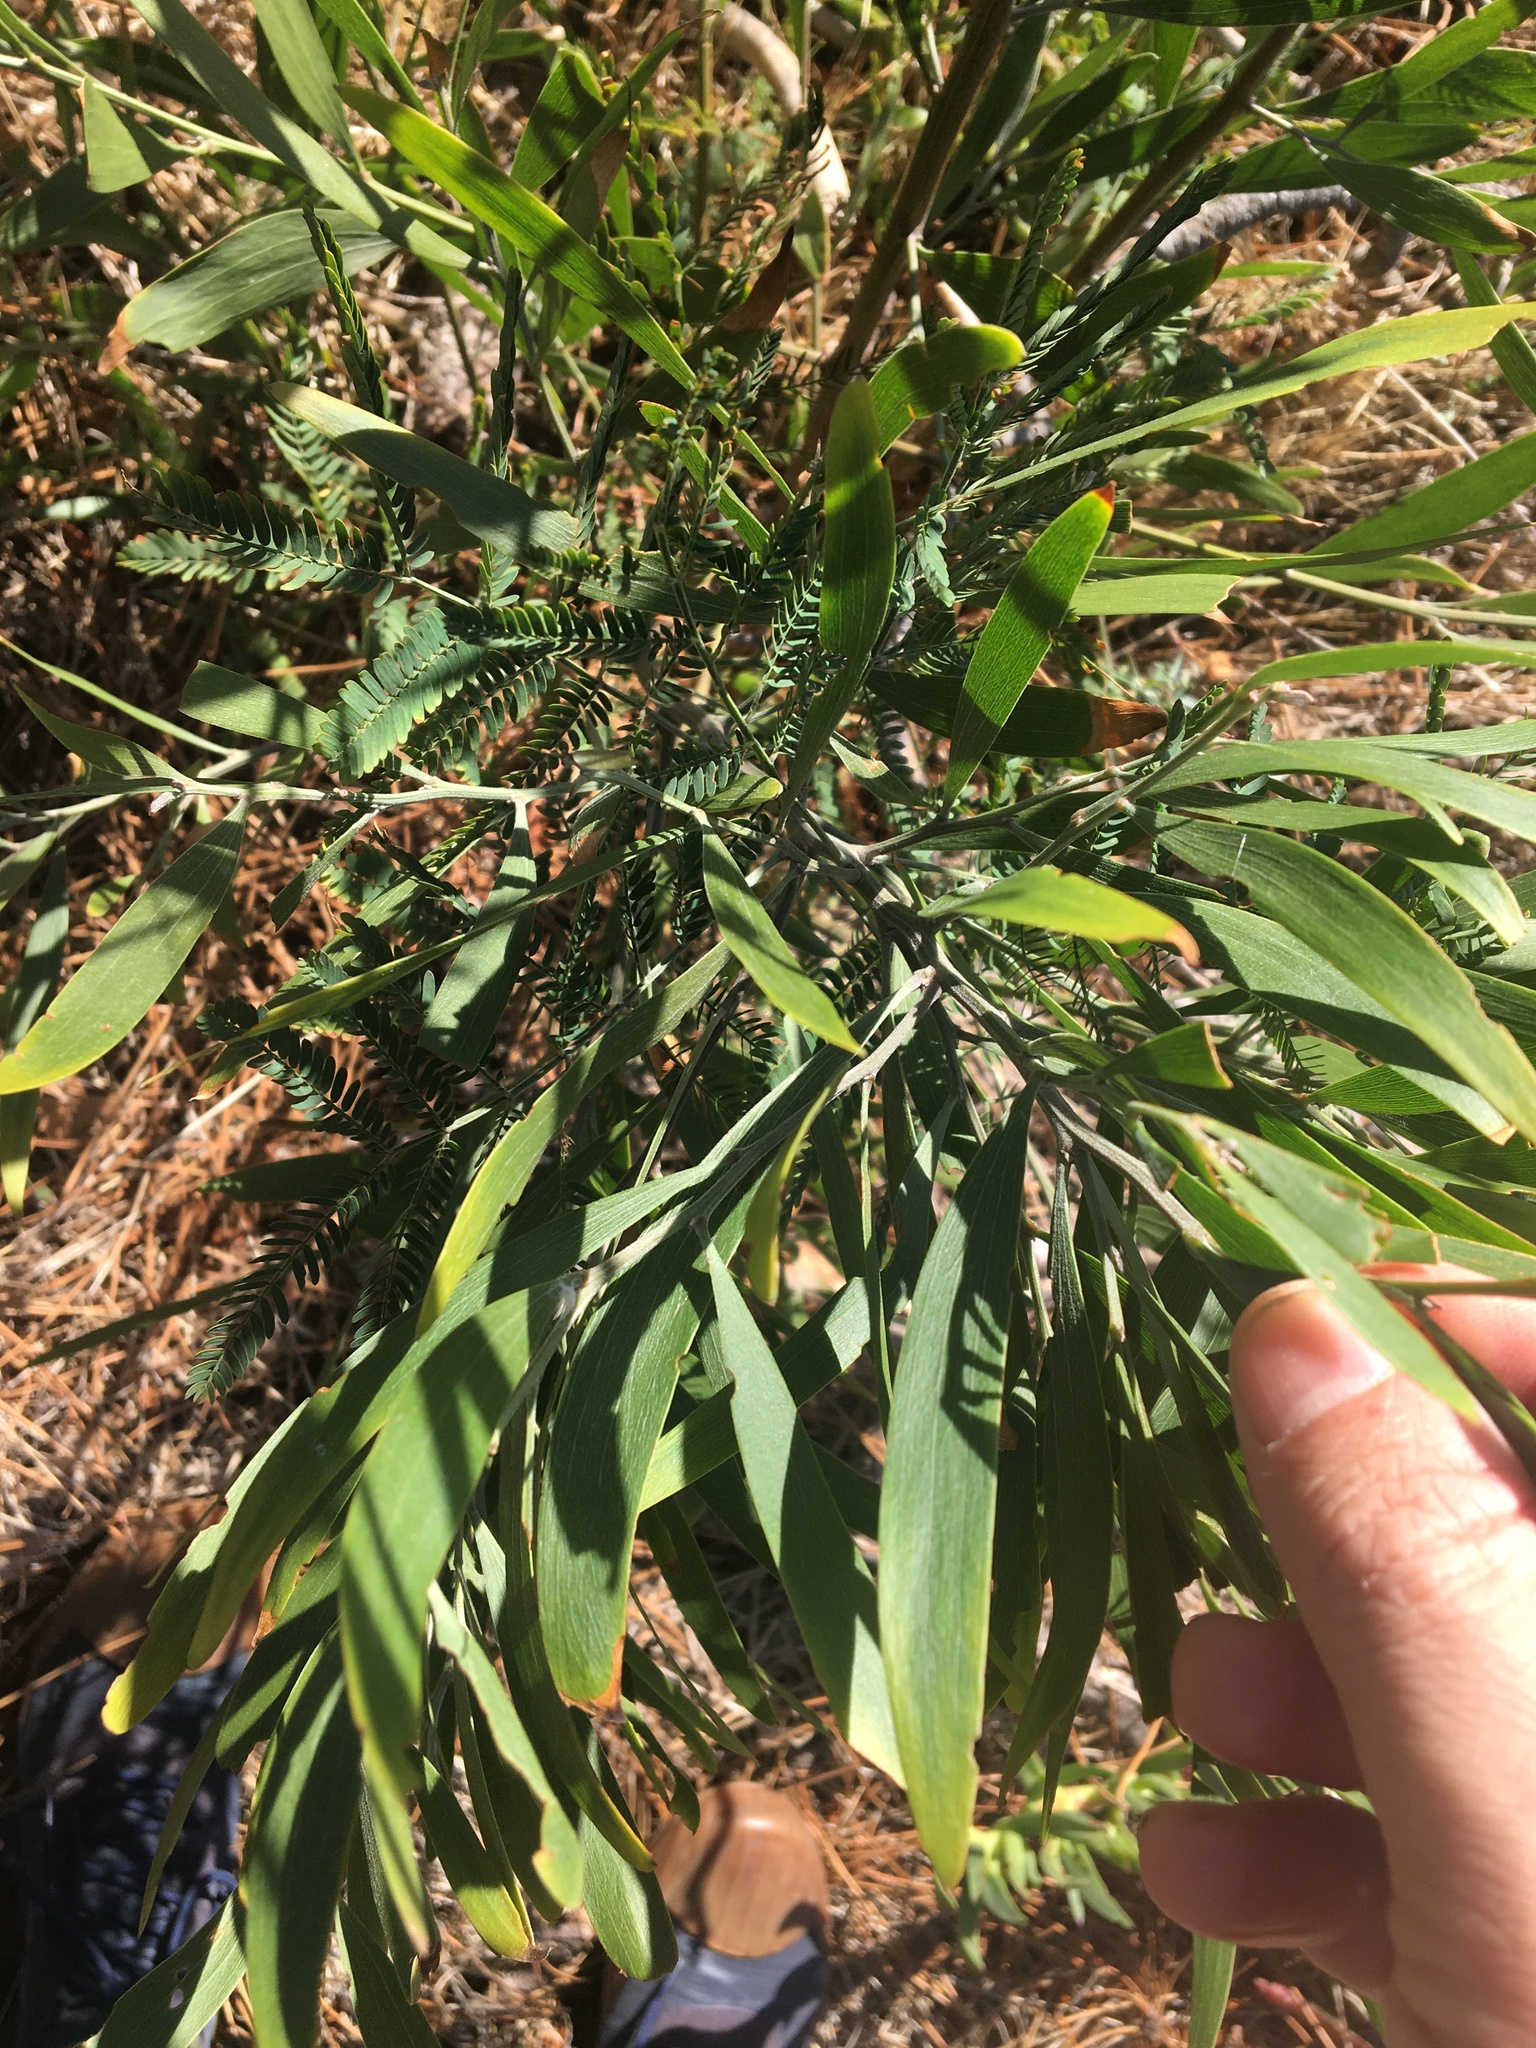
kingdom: Plantae
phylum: Tracheophyta
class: Magnoliopsida
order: Fabales
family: Fabaceae
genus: Acacia
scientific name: Acacia melanoxylon
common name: Blackwood
